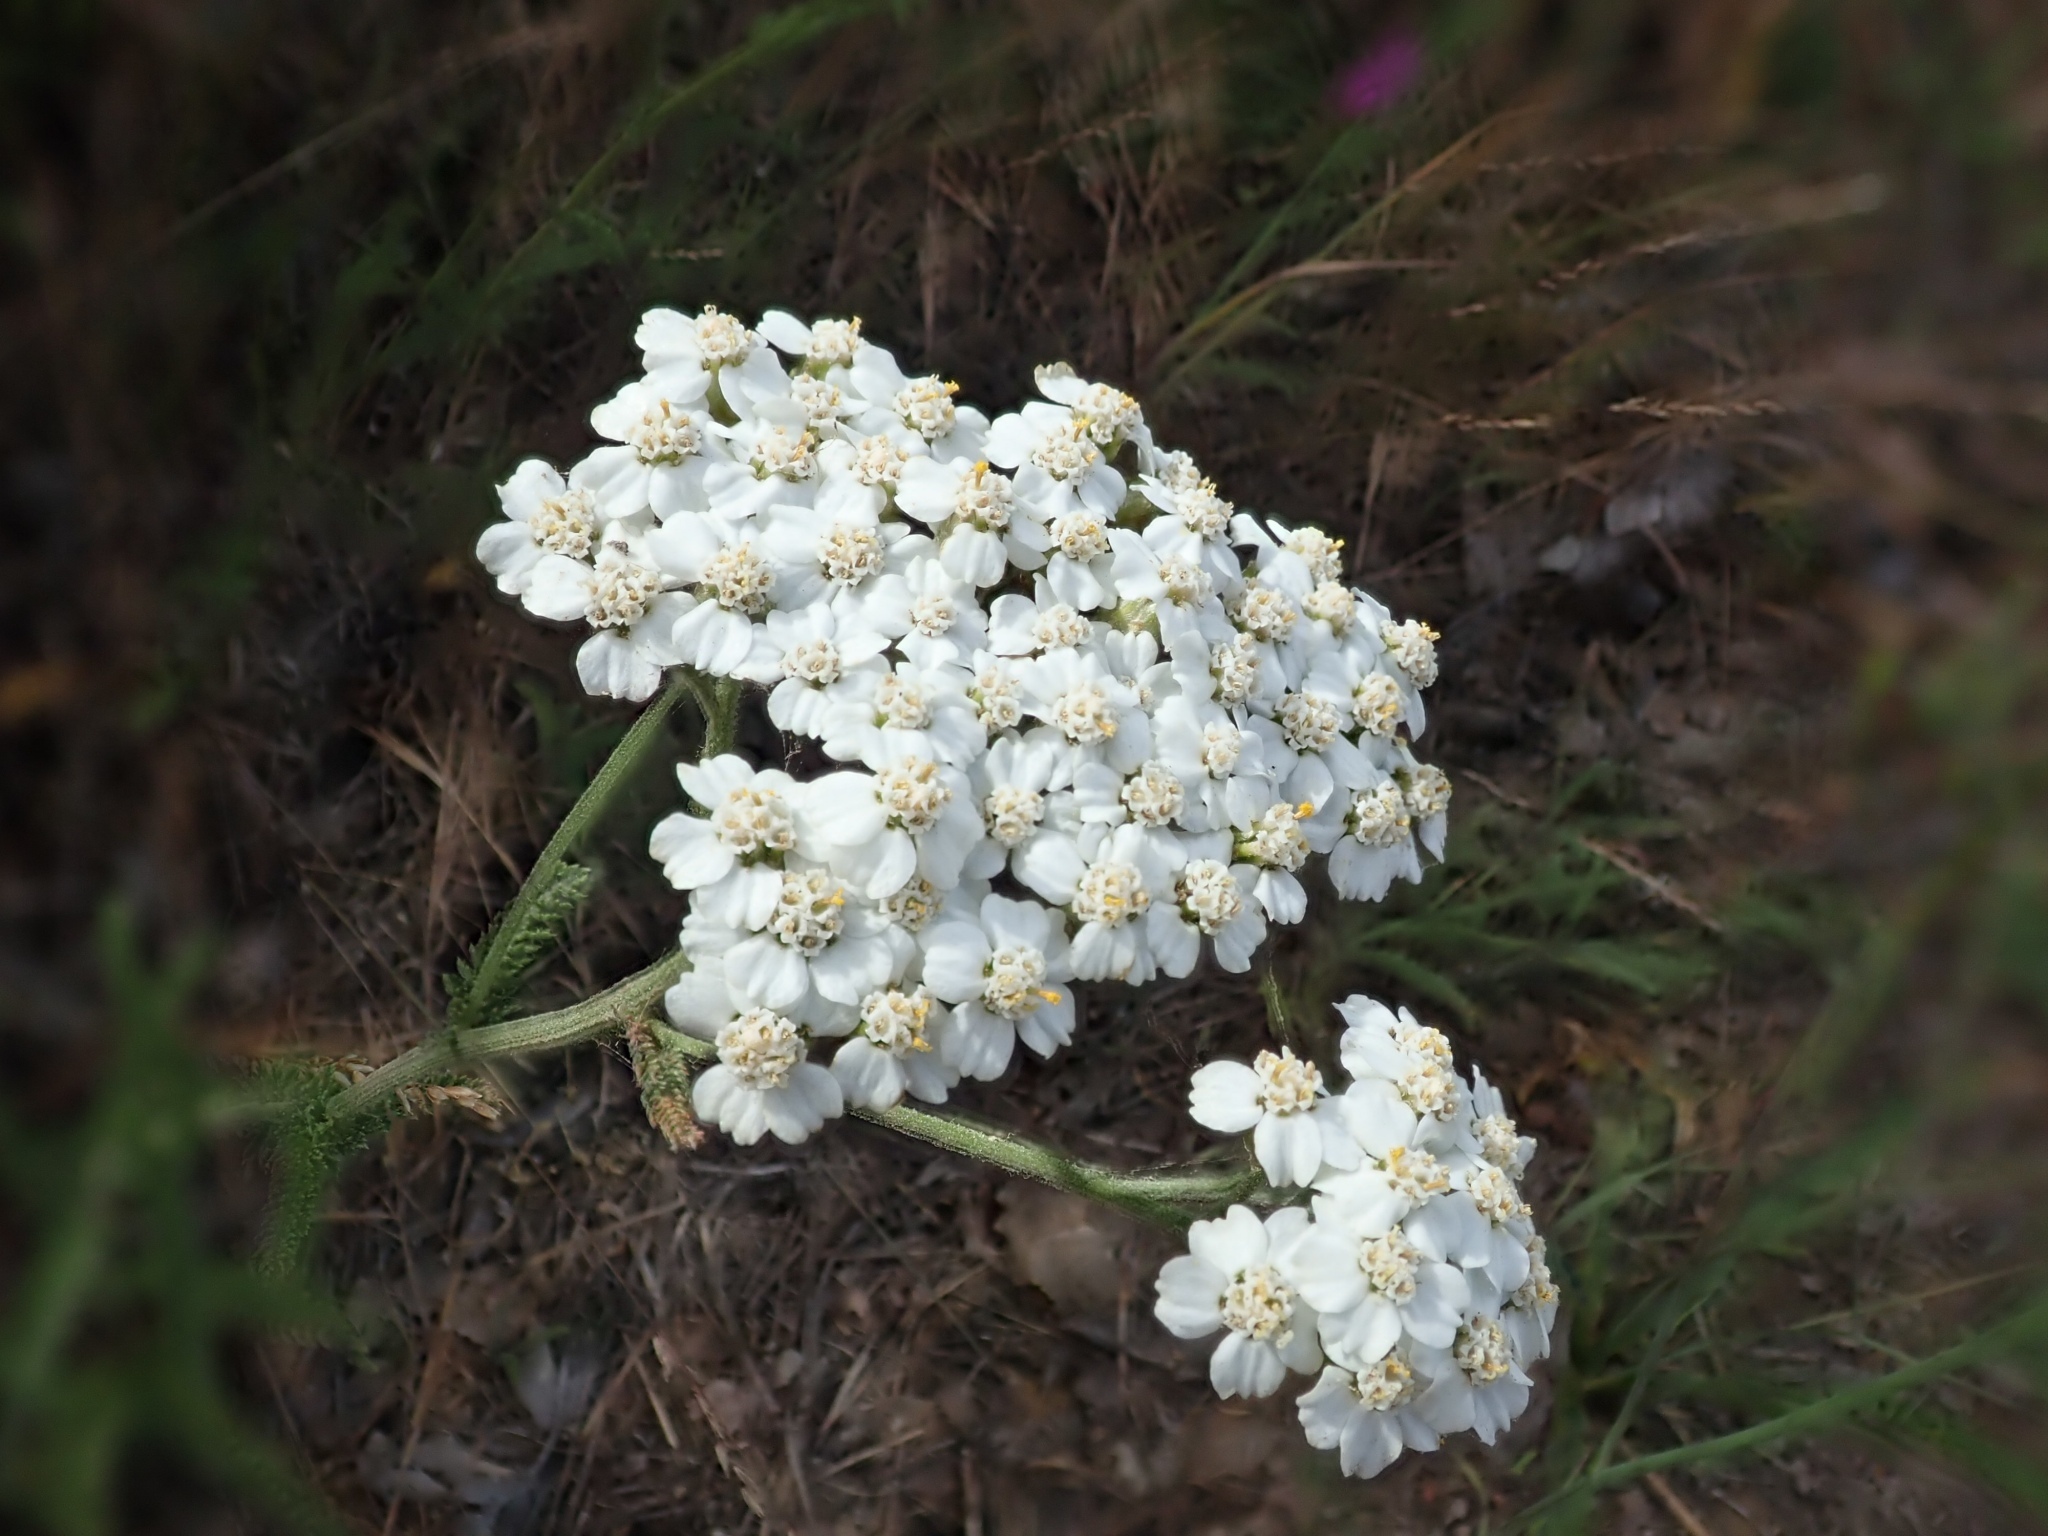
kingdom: Plantae
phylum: Tracheophyta
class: Magnoliopsida
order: Asterales
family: Asteraceae
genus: Achillea
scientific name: Achillea millefolium
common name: Yarrow
